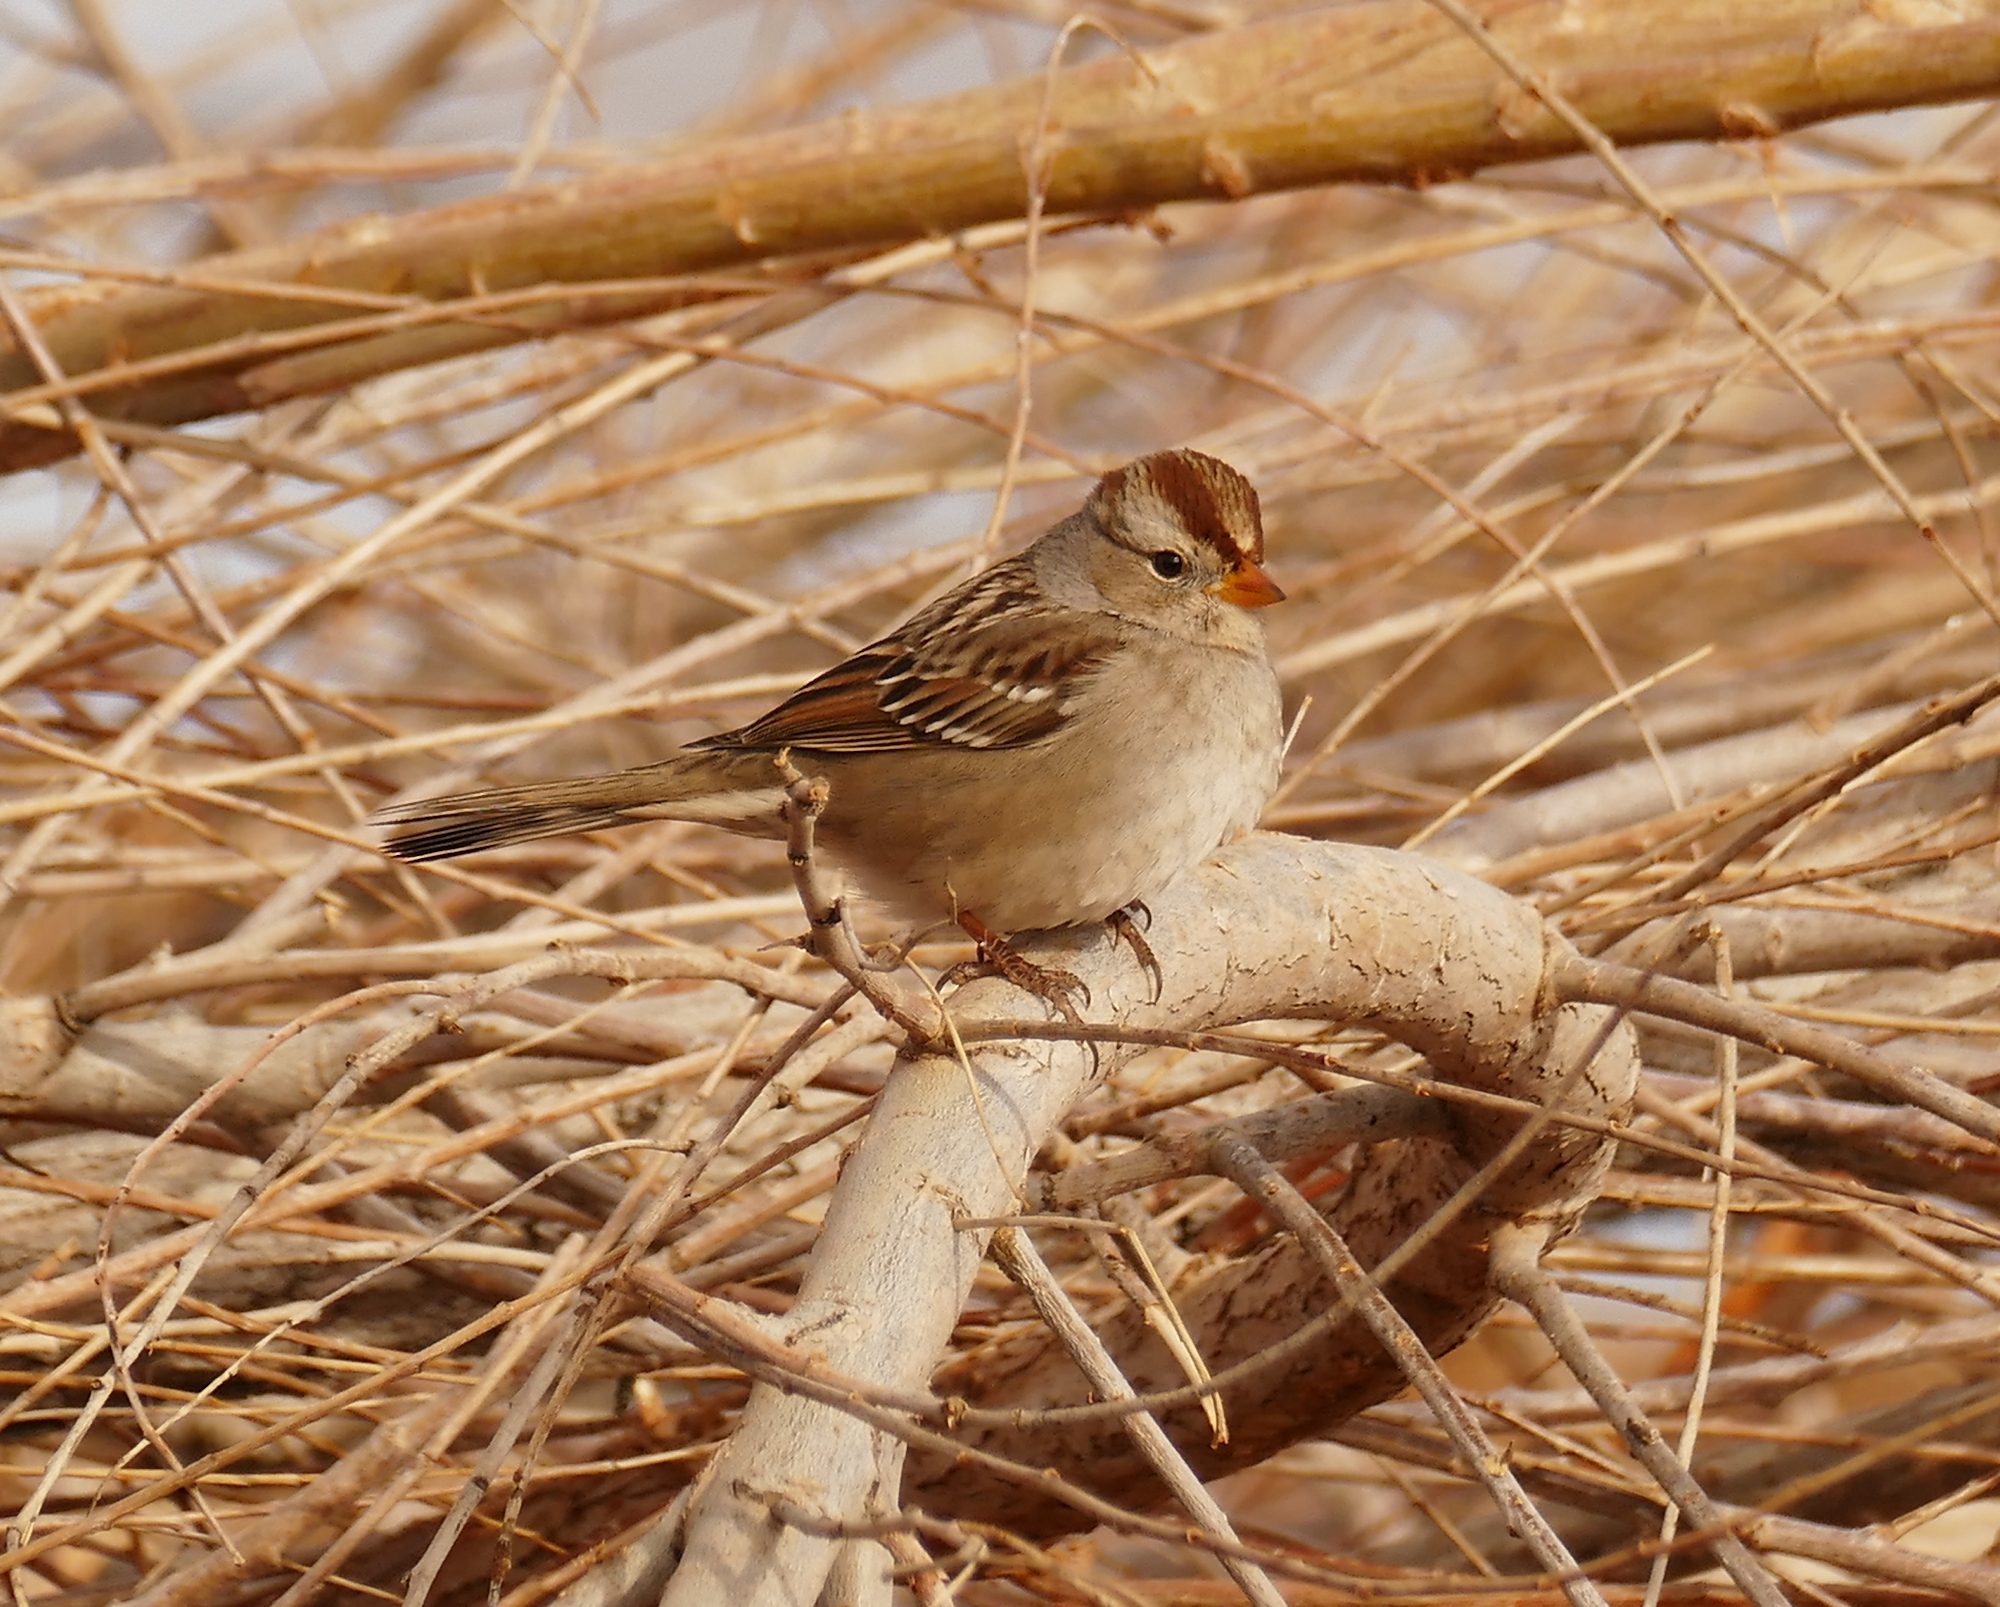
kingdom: Animalia
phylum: Chordata
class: Aves
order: Passeriformes
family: Passerellidae
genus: Zonotrichia
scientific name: Zonotrichia leucophrys
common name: White-crowned sparrow
